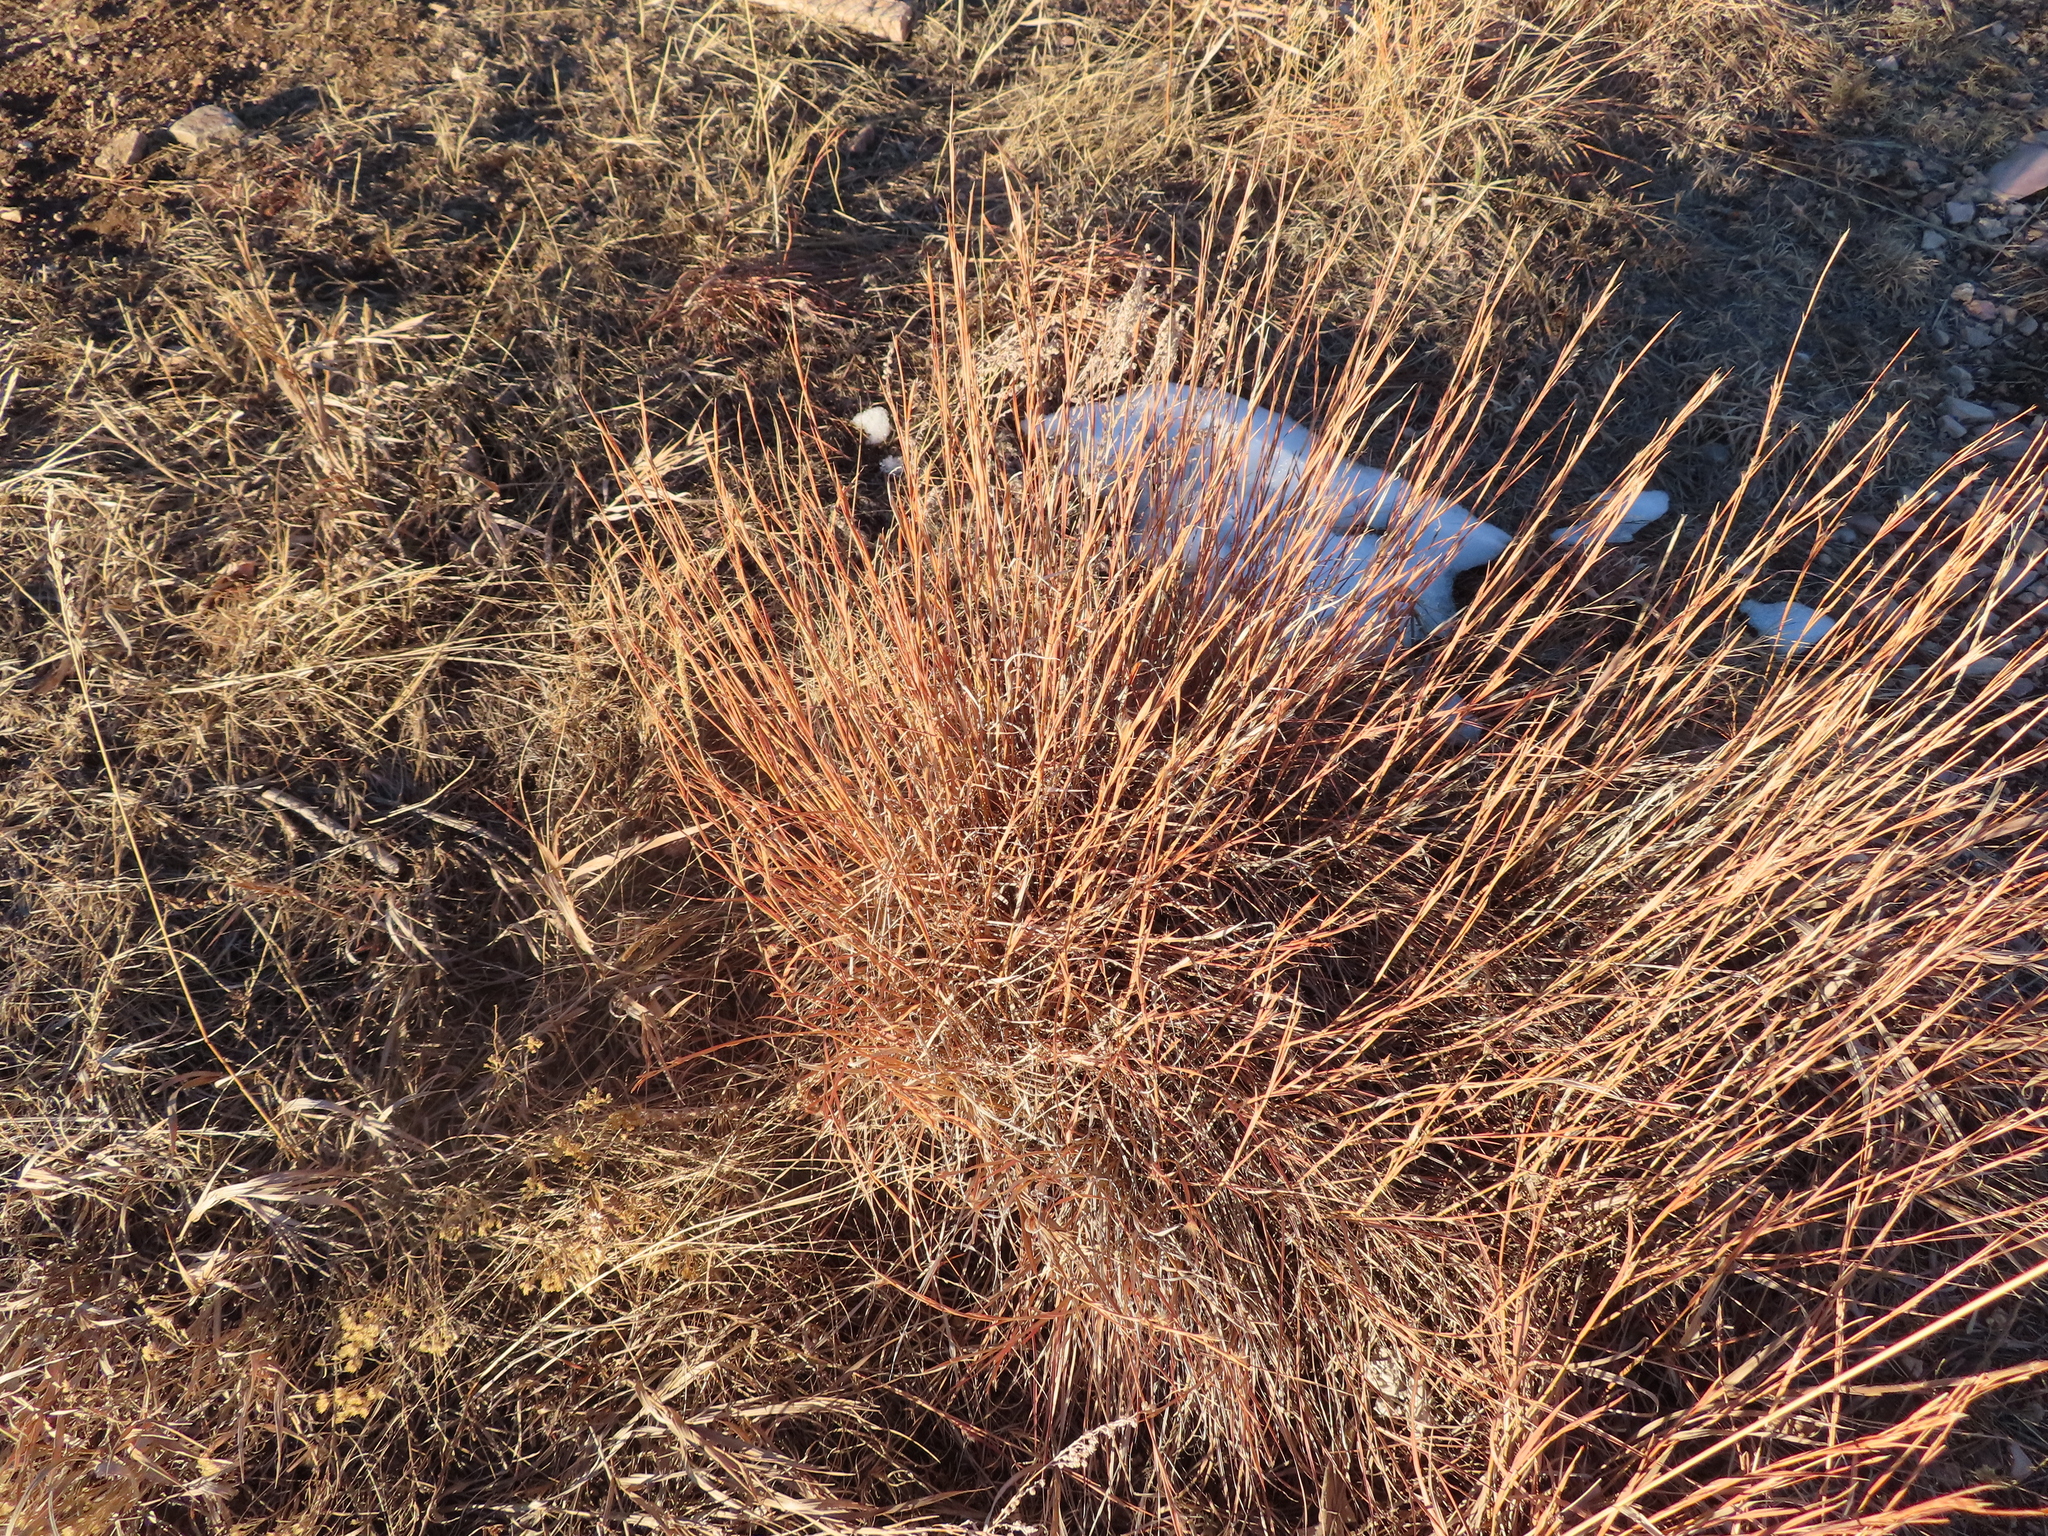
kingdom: Plantae
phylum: Tracheophyta
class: Liliopsida
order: Poales
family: Poaceae
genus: Schizachyrium
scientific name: Schizachyrium scoparium
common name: Little bluestem
